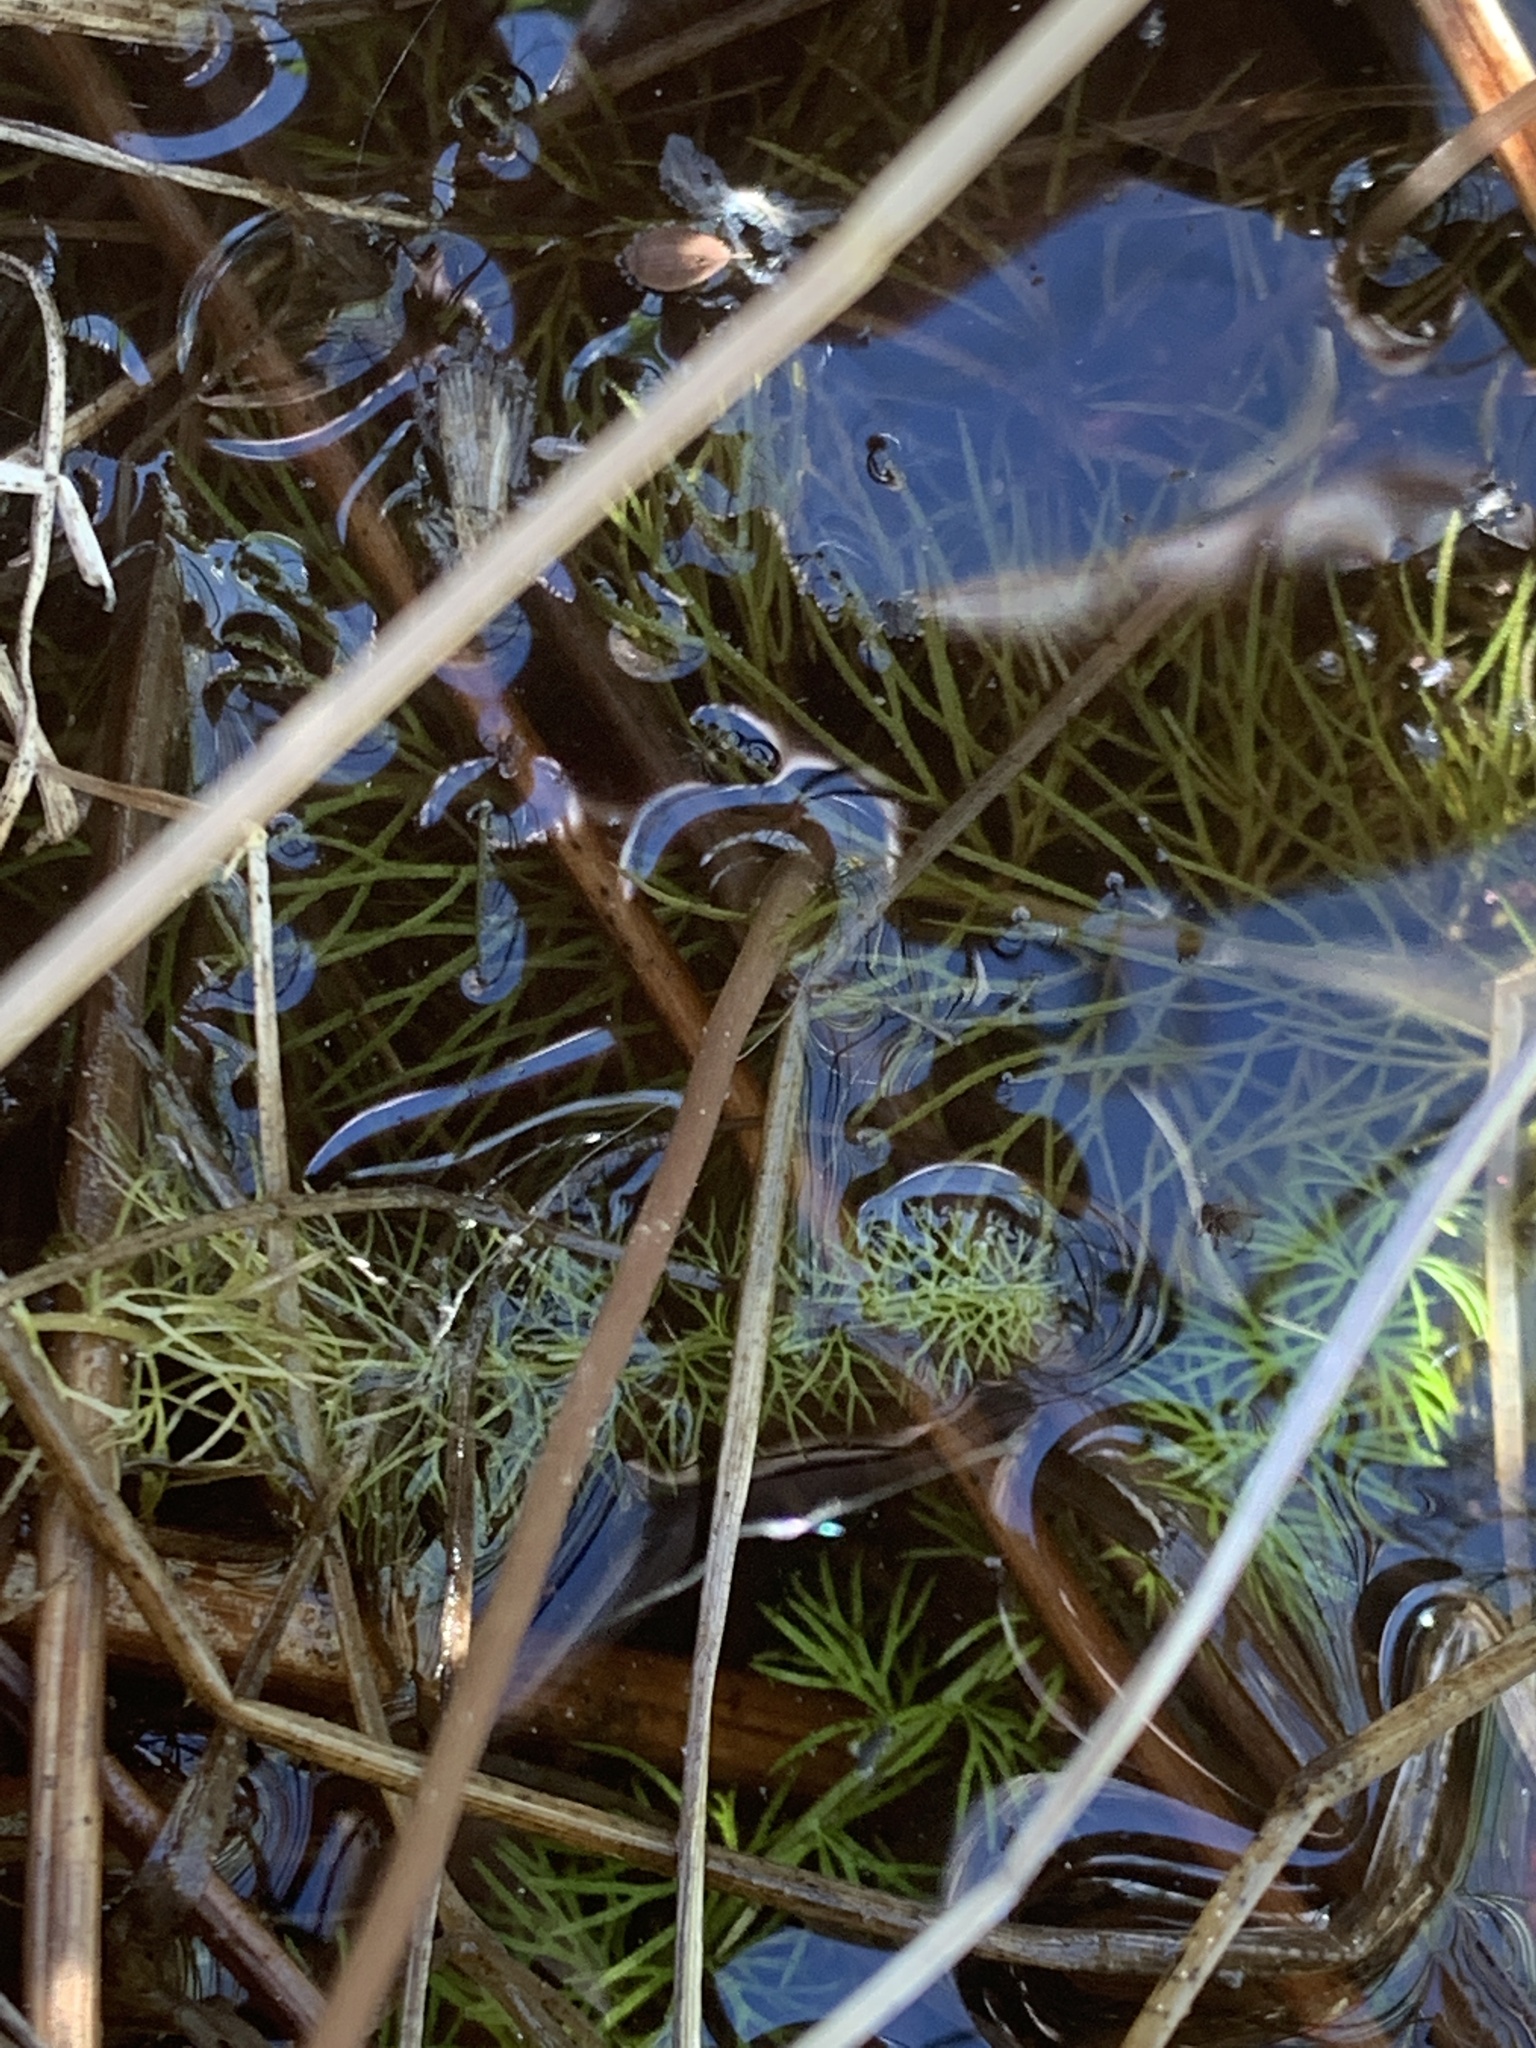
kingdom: Plantae
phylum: Tracheophyta
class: Magnoliopsida
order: Lamiales
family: Lentibulariaceae
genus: Utricularia
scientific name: Utricularia intermedia
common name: Intermediate bladderwort
